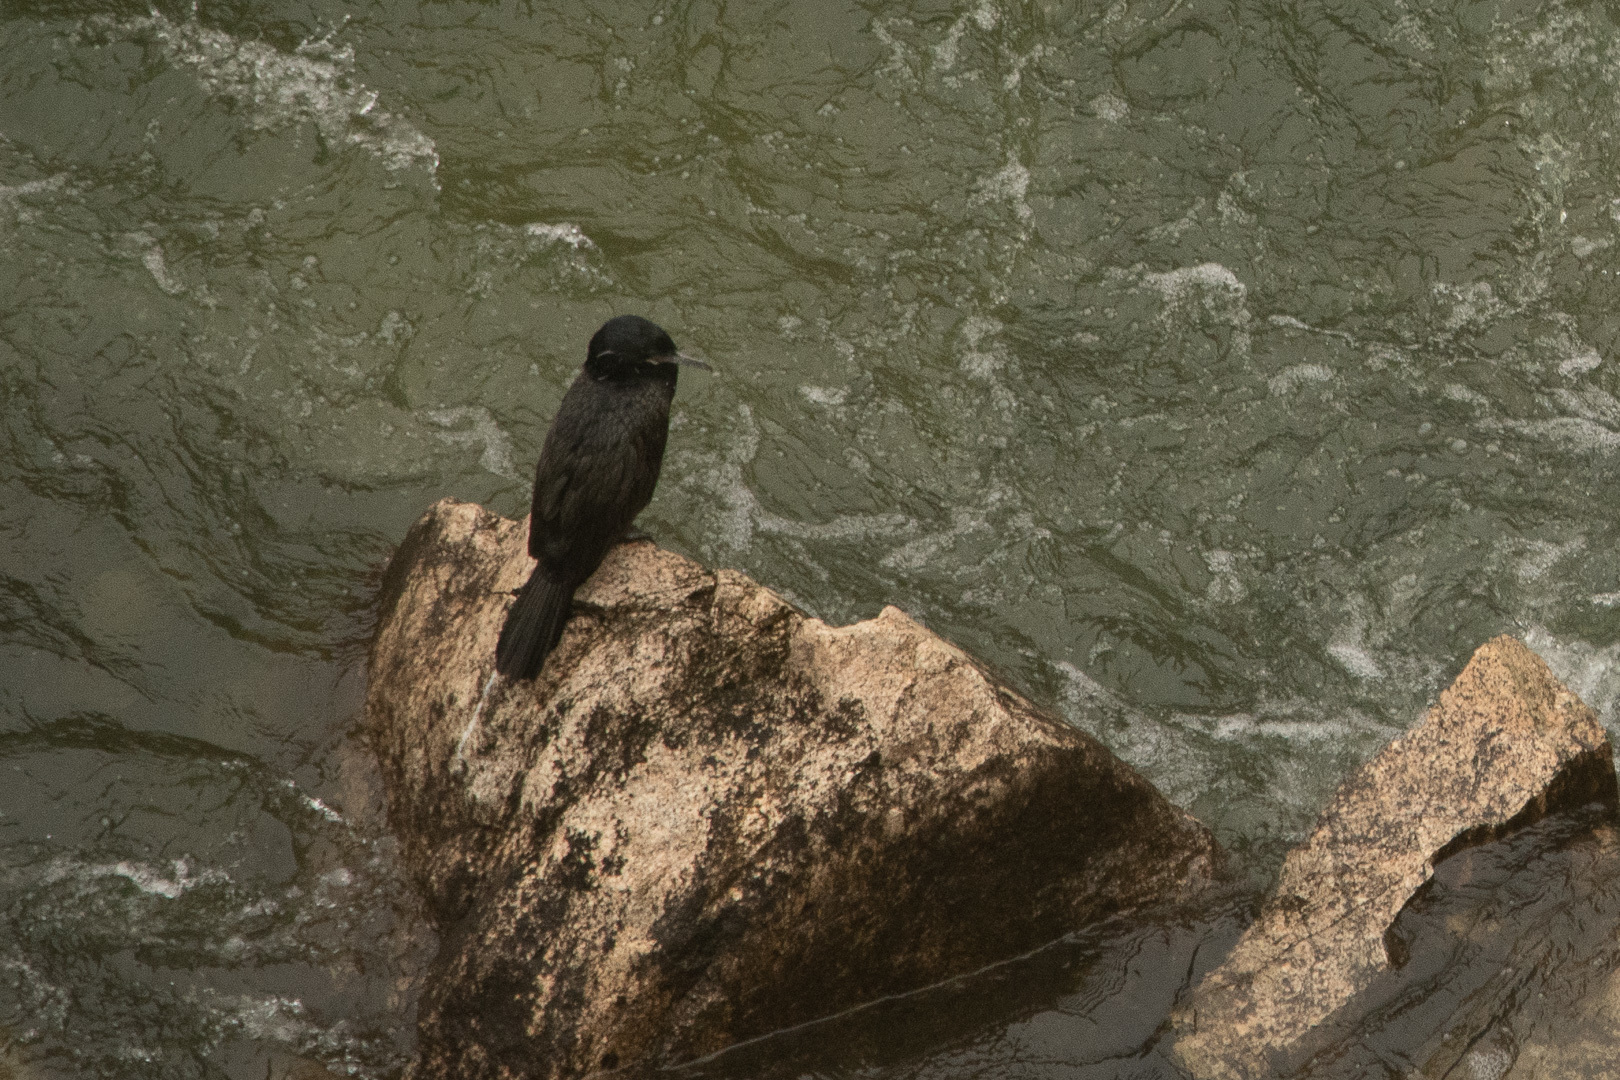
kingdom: Animalia
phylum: Chordata
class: Aves
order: Suliformes
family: Phalacrocoracidae
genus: Phalacrocorax
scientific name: Phalacrocorax brasilianus
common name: Neotropic cormorant
